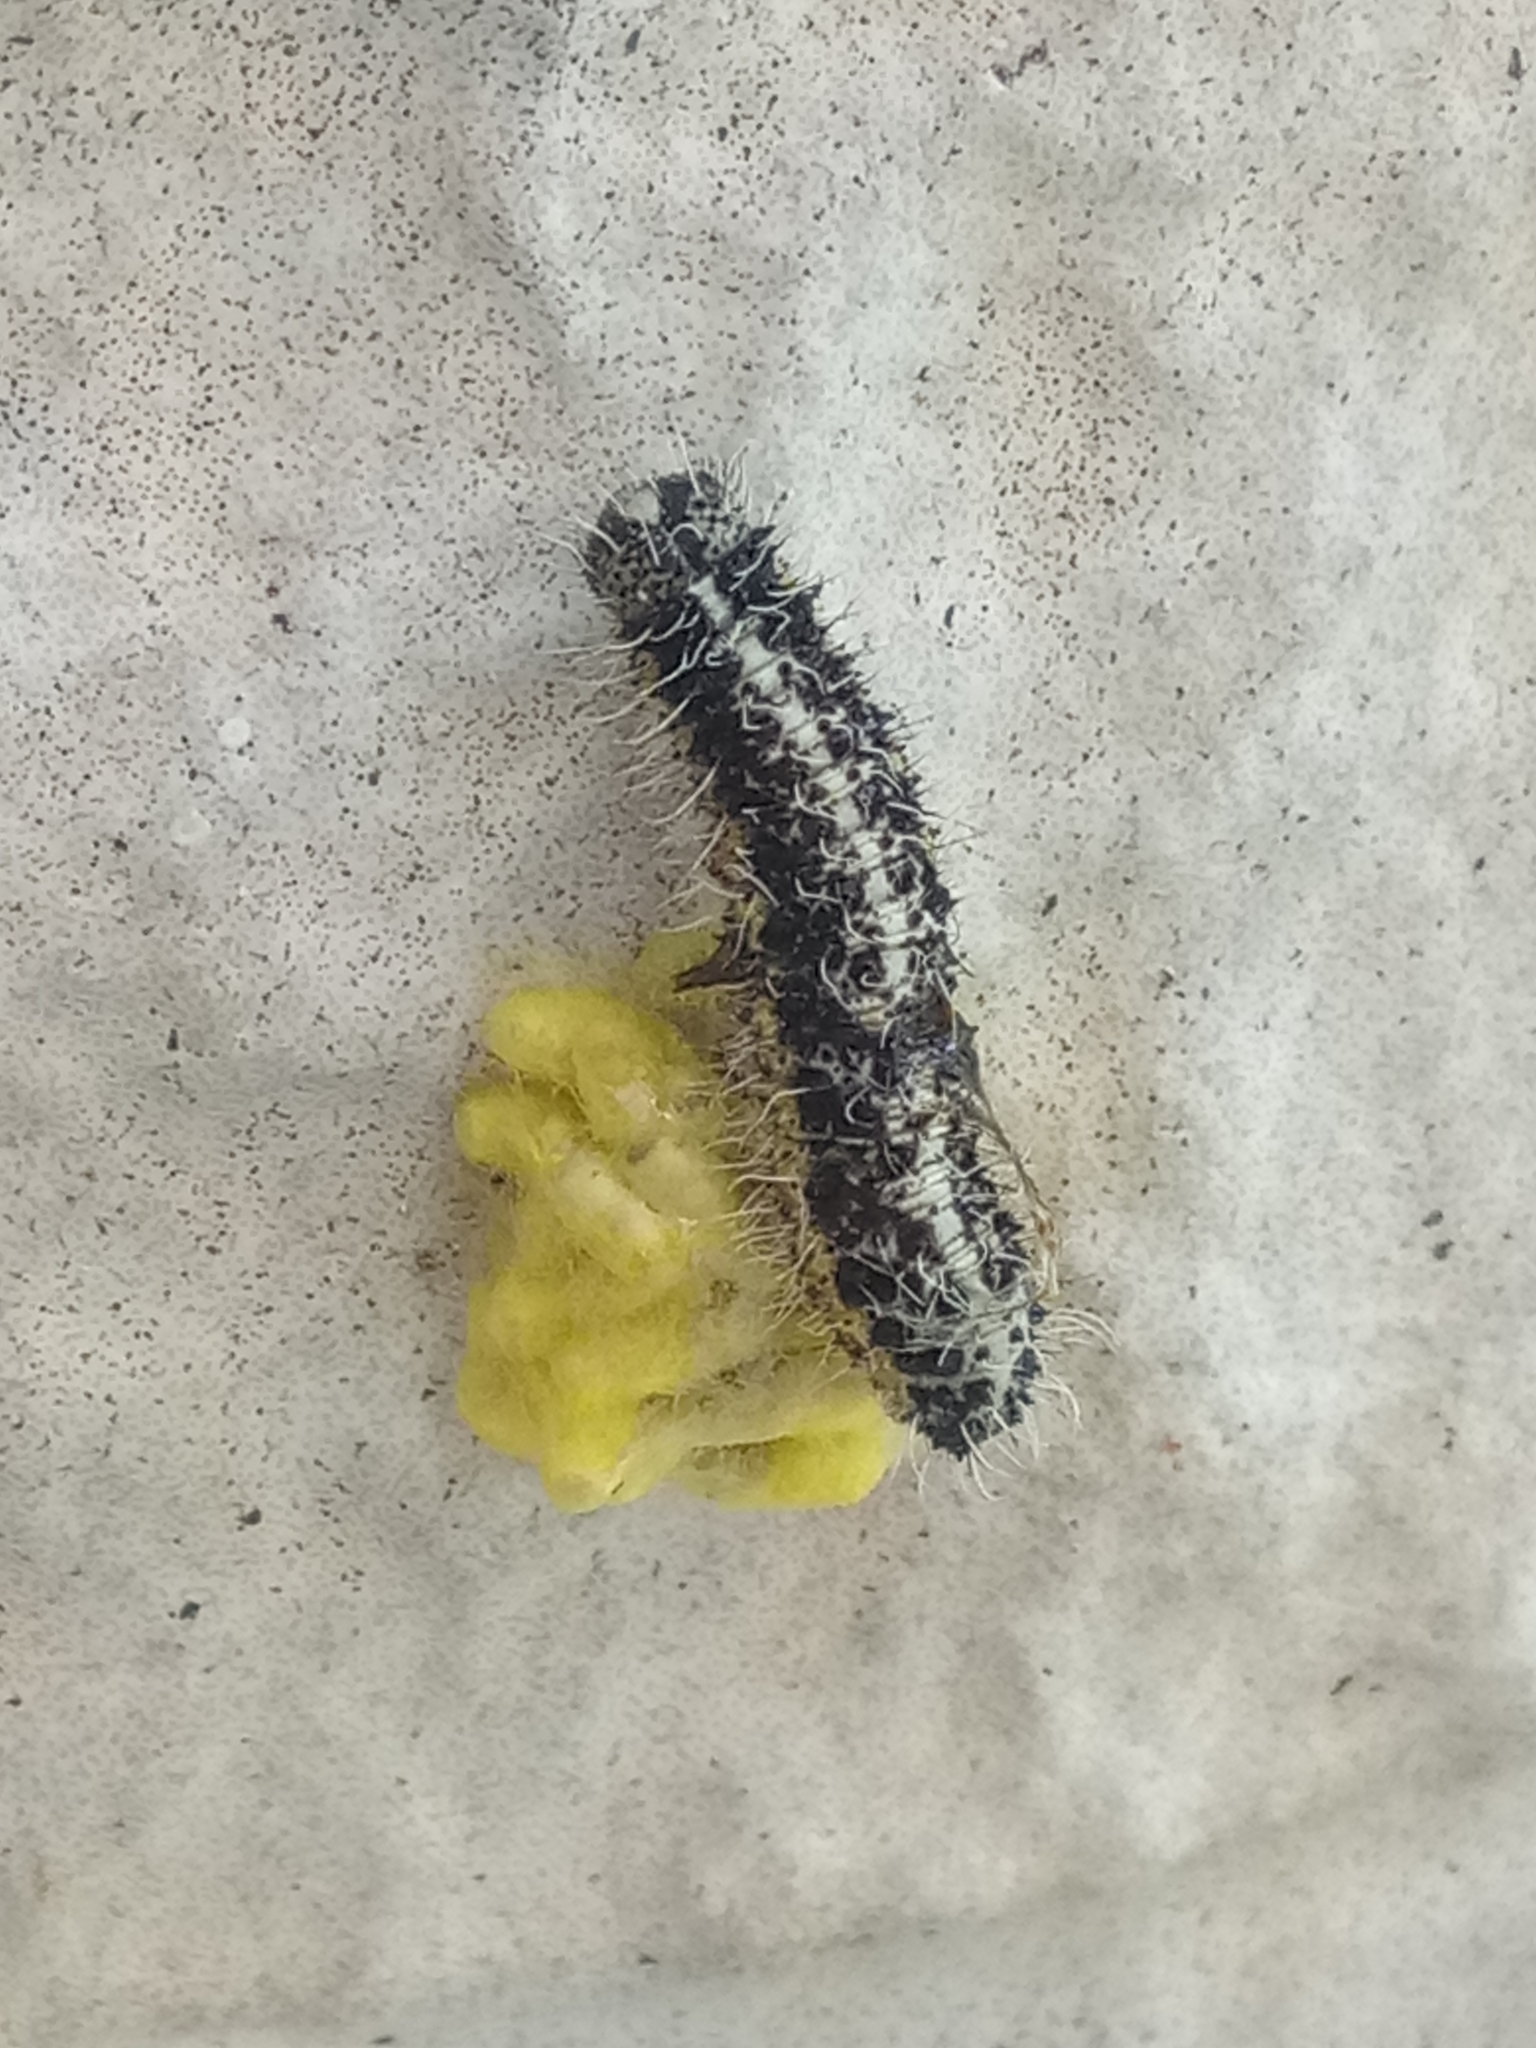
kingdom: Animalia
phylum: Arthropoda
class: Insecta
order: Lepidoptera
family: Pieridae
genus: Pieris
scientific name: Pieris brassicae
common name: Large white
